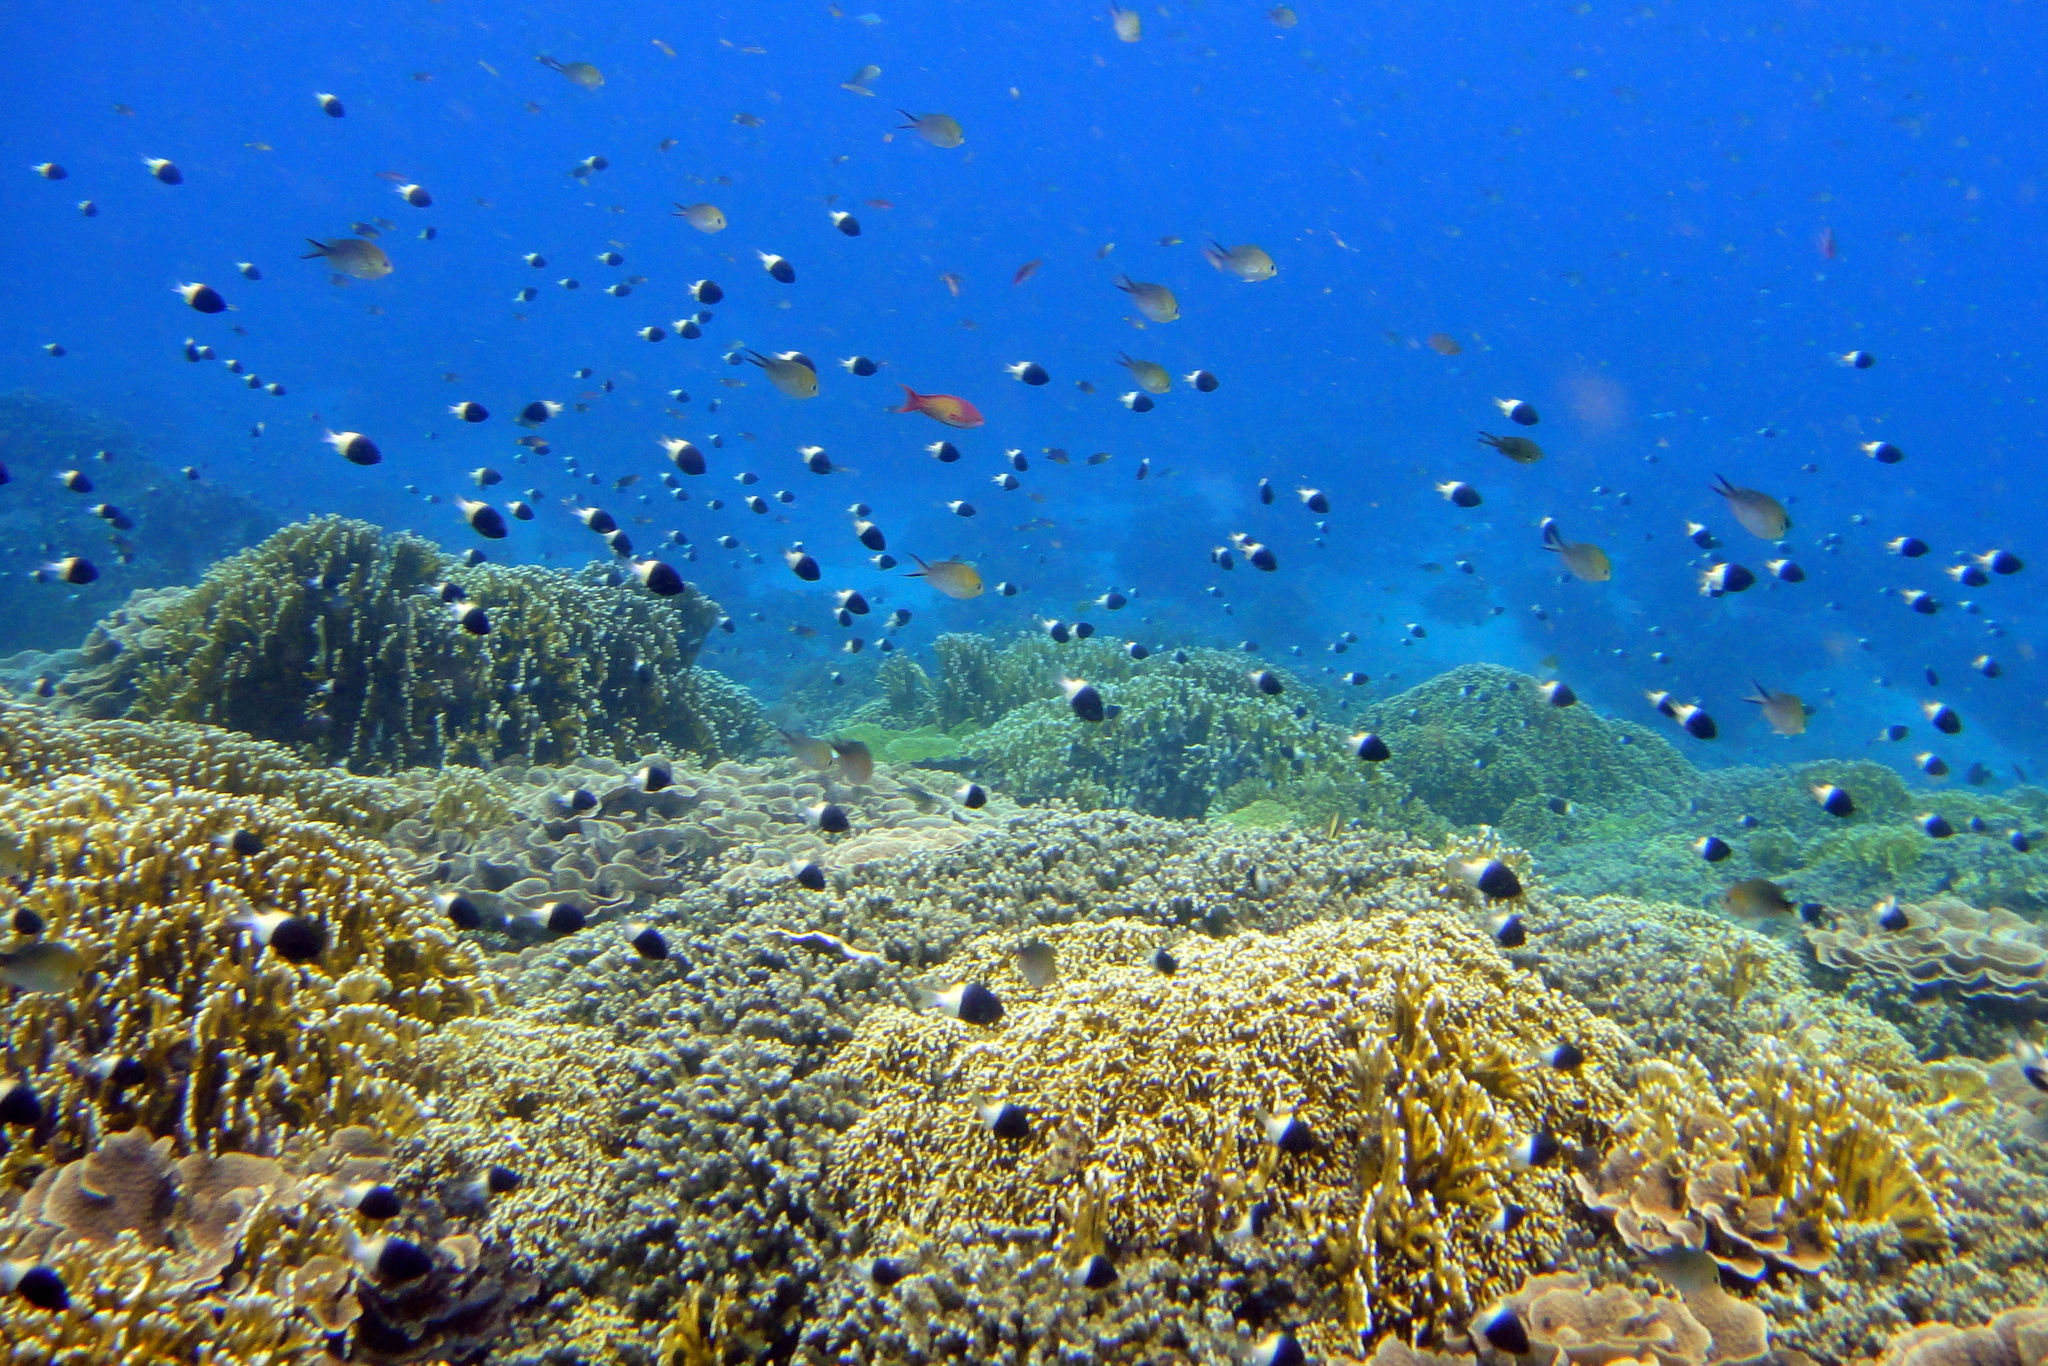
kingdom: Animalia
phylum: Chordata
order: Perciformes
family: Pomacentridae
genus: Chromis
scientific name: Chromis fieldi
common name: Chocolatedip chromis
